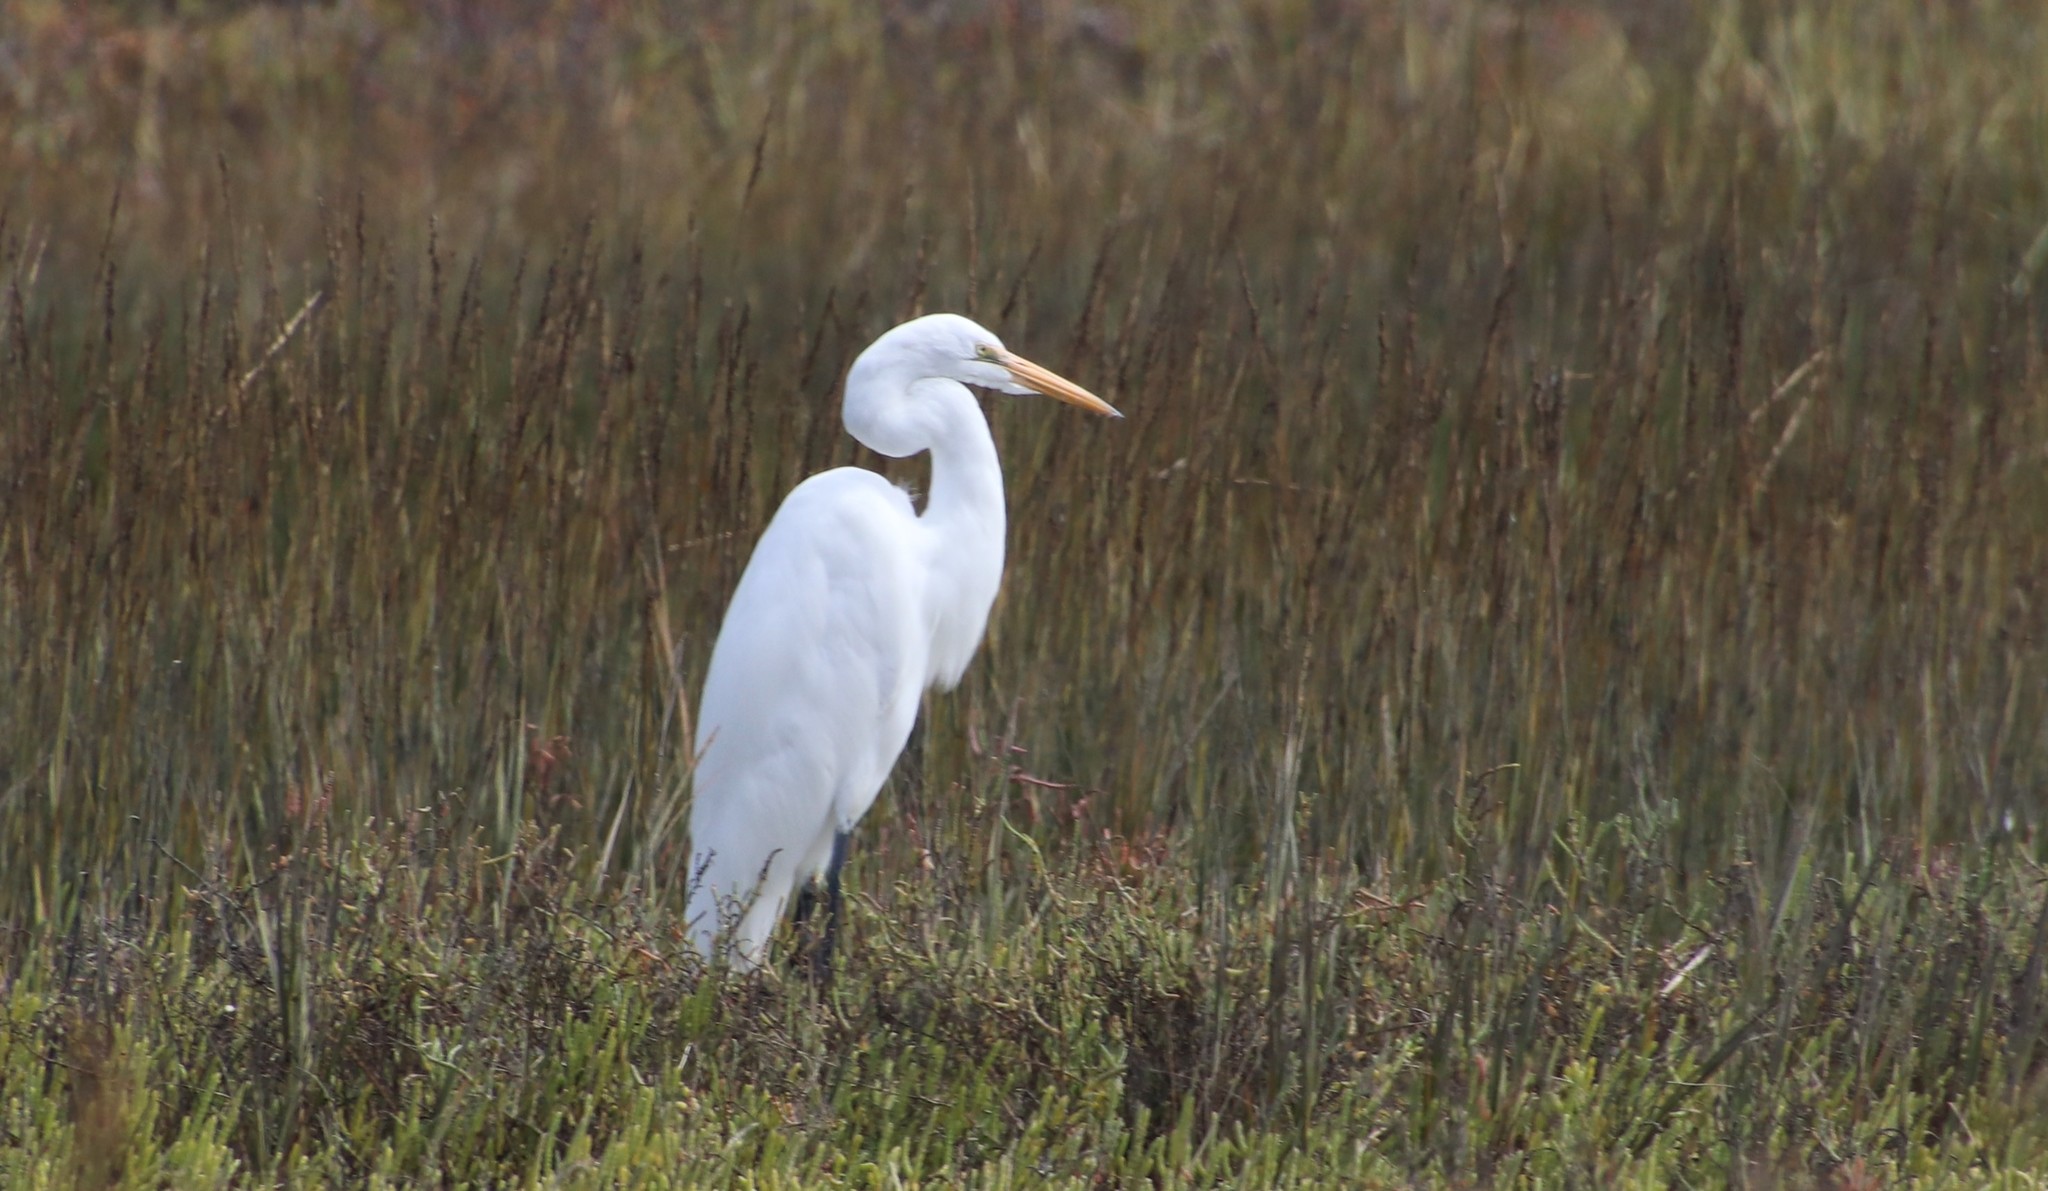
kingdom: Animalia
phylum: Chordata
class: Aves
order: Pelecaniformes
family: Ardeidae
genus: Ardea
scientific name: Ardea alba
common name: Great egret
